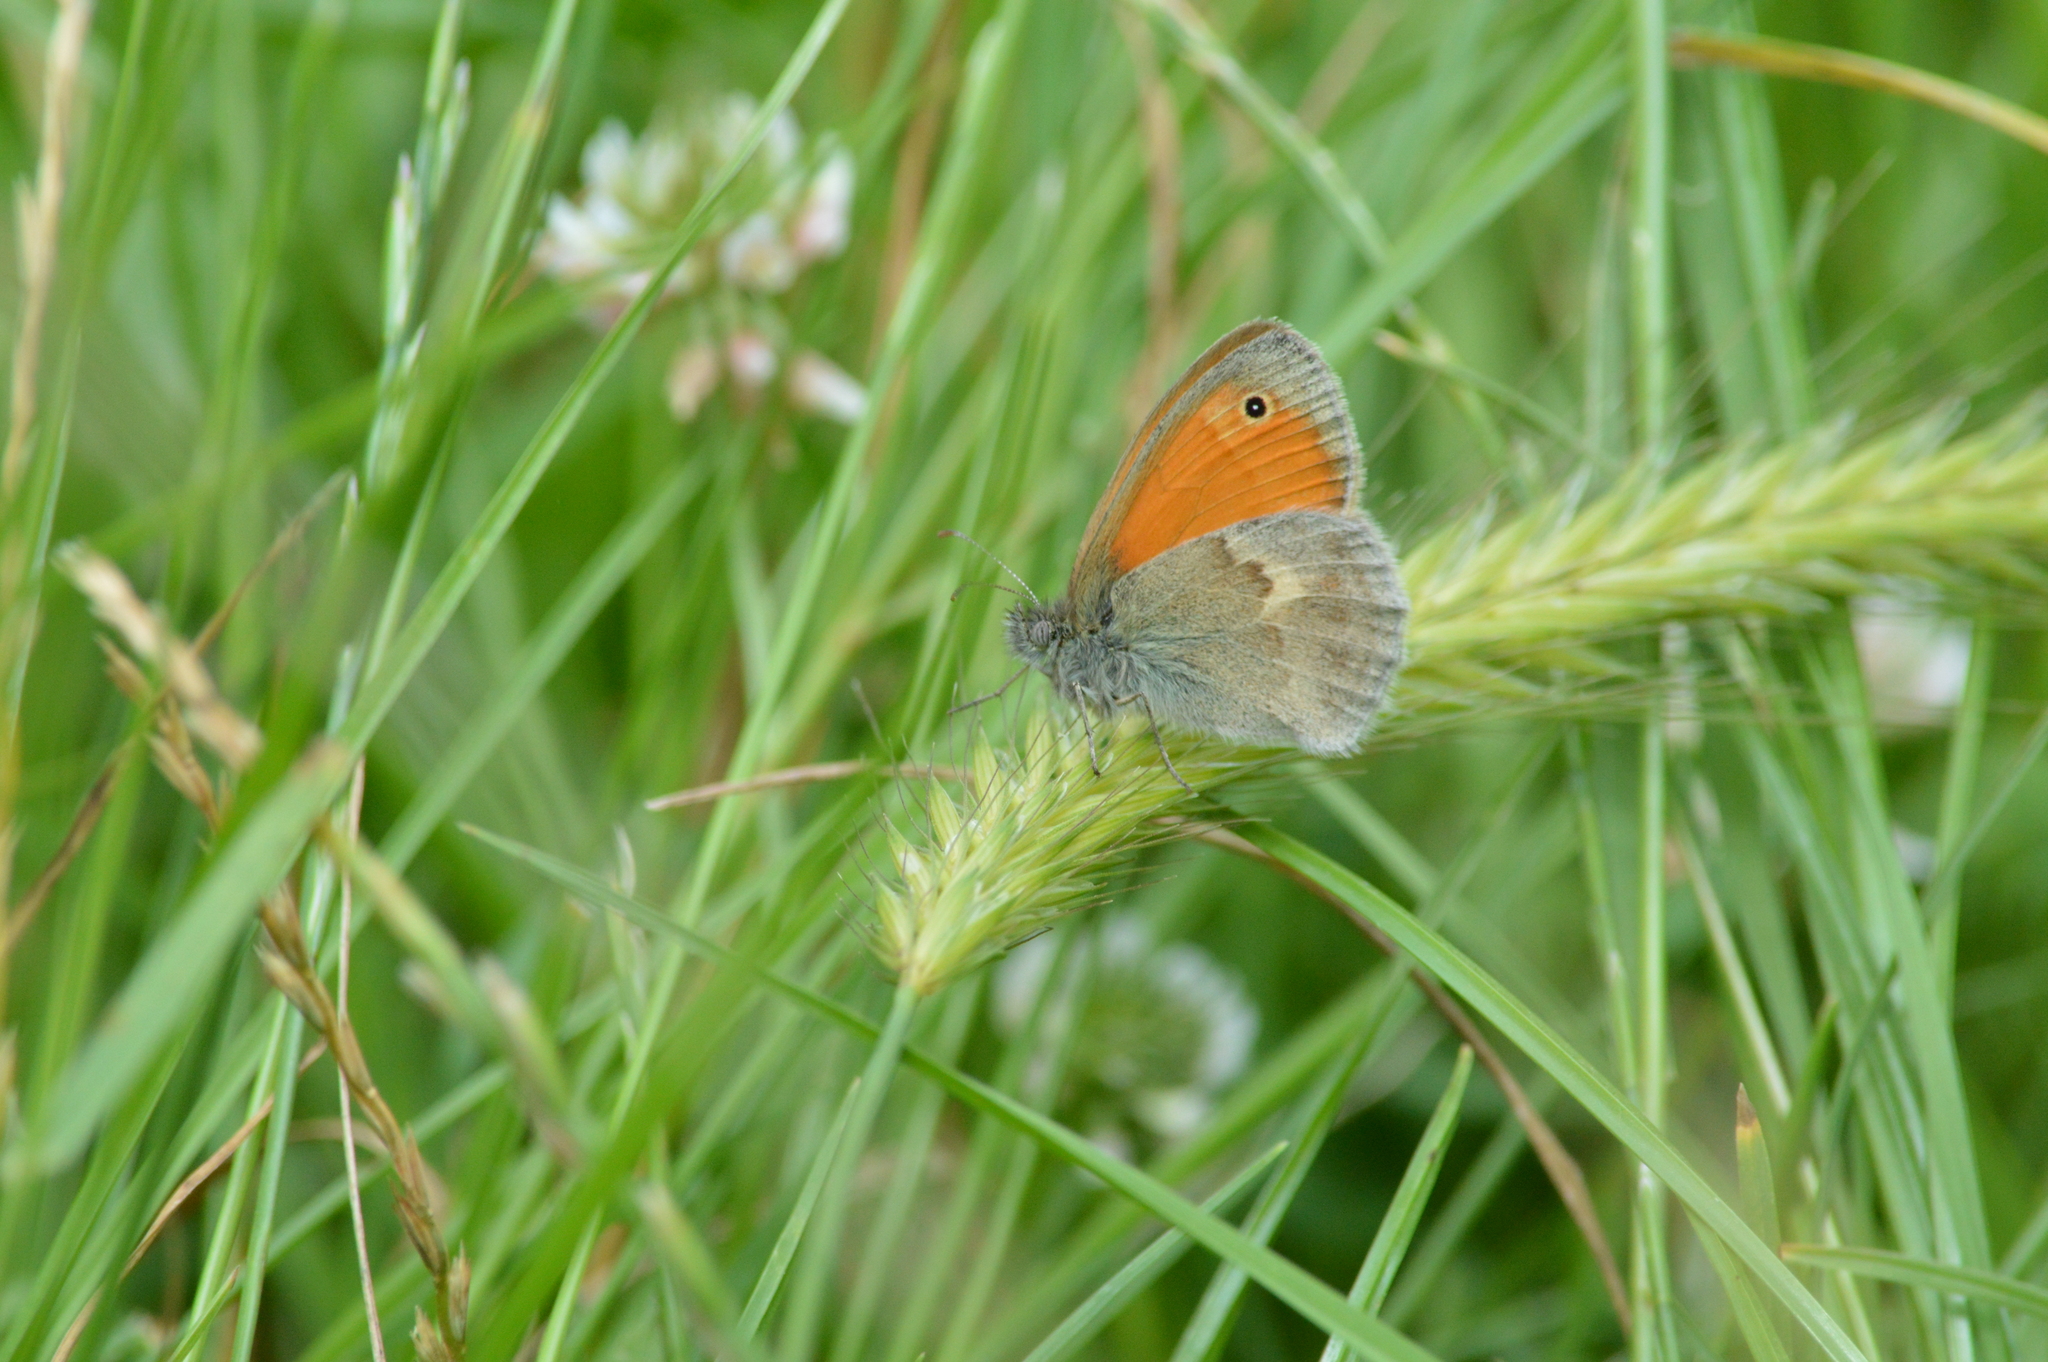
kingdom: Animalia
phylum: Arthropoda
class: Insecta
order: Lepidoptera
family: Nymphalidae
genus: Coenonympha
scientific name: Coenonympha pamphilus
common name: Small heath
